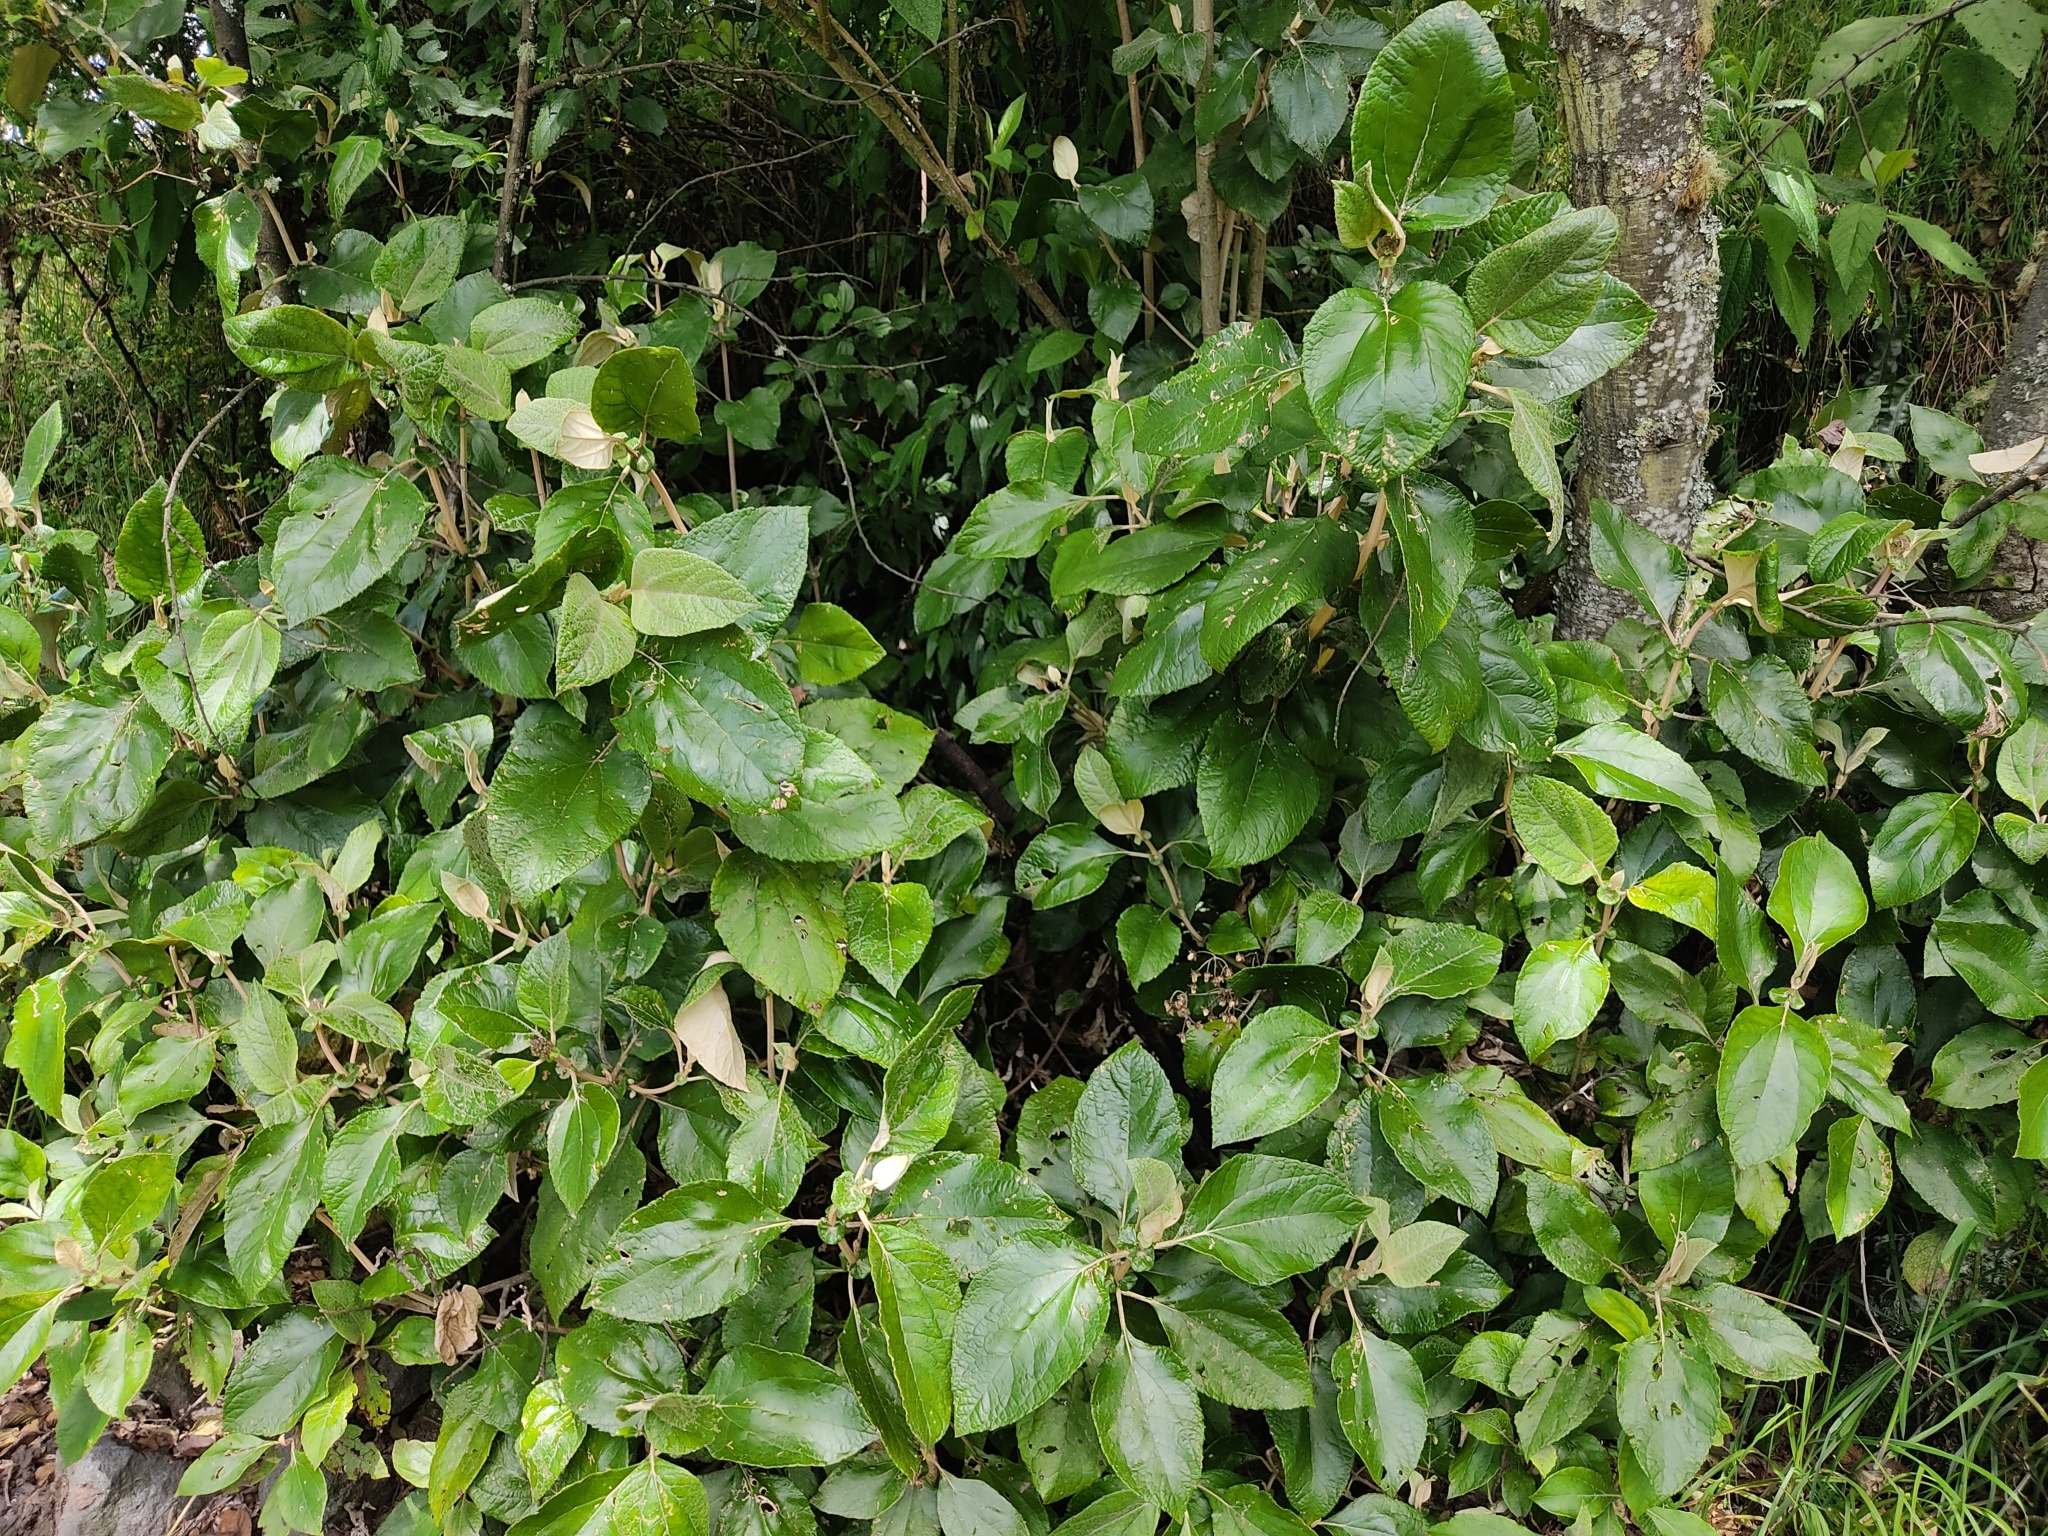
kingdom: Plantae
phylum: Tracheophyta
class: Magnoliopsida
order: Asterales
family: Asteraceae
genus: Liabum
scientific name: Liabum igniarium
